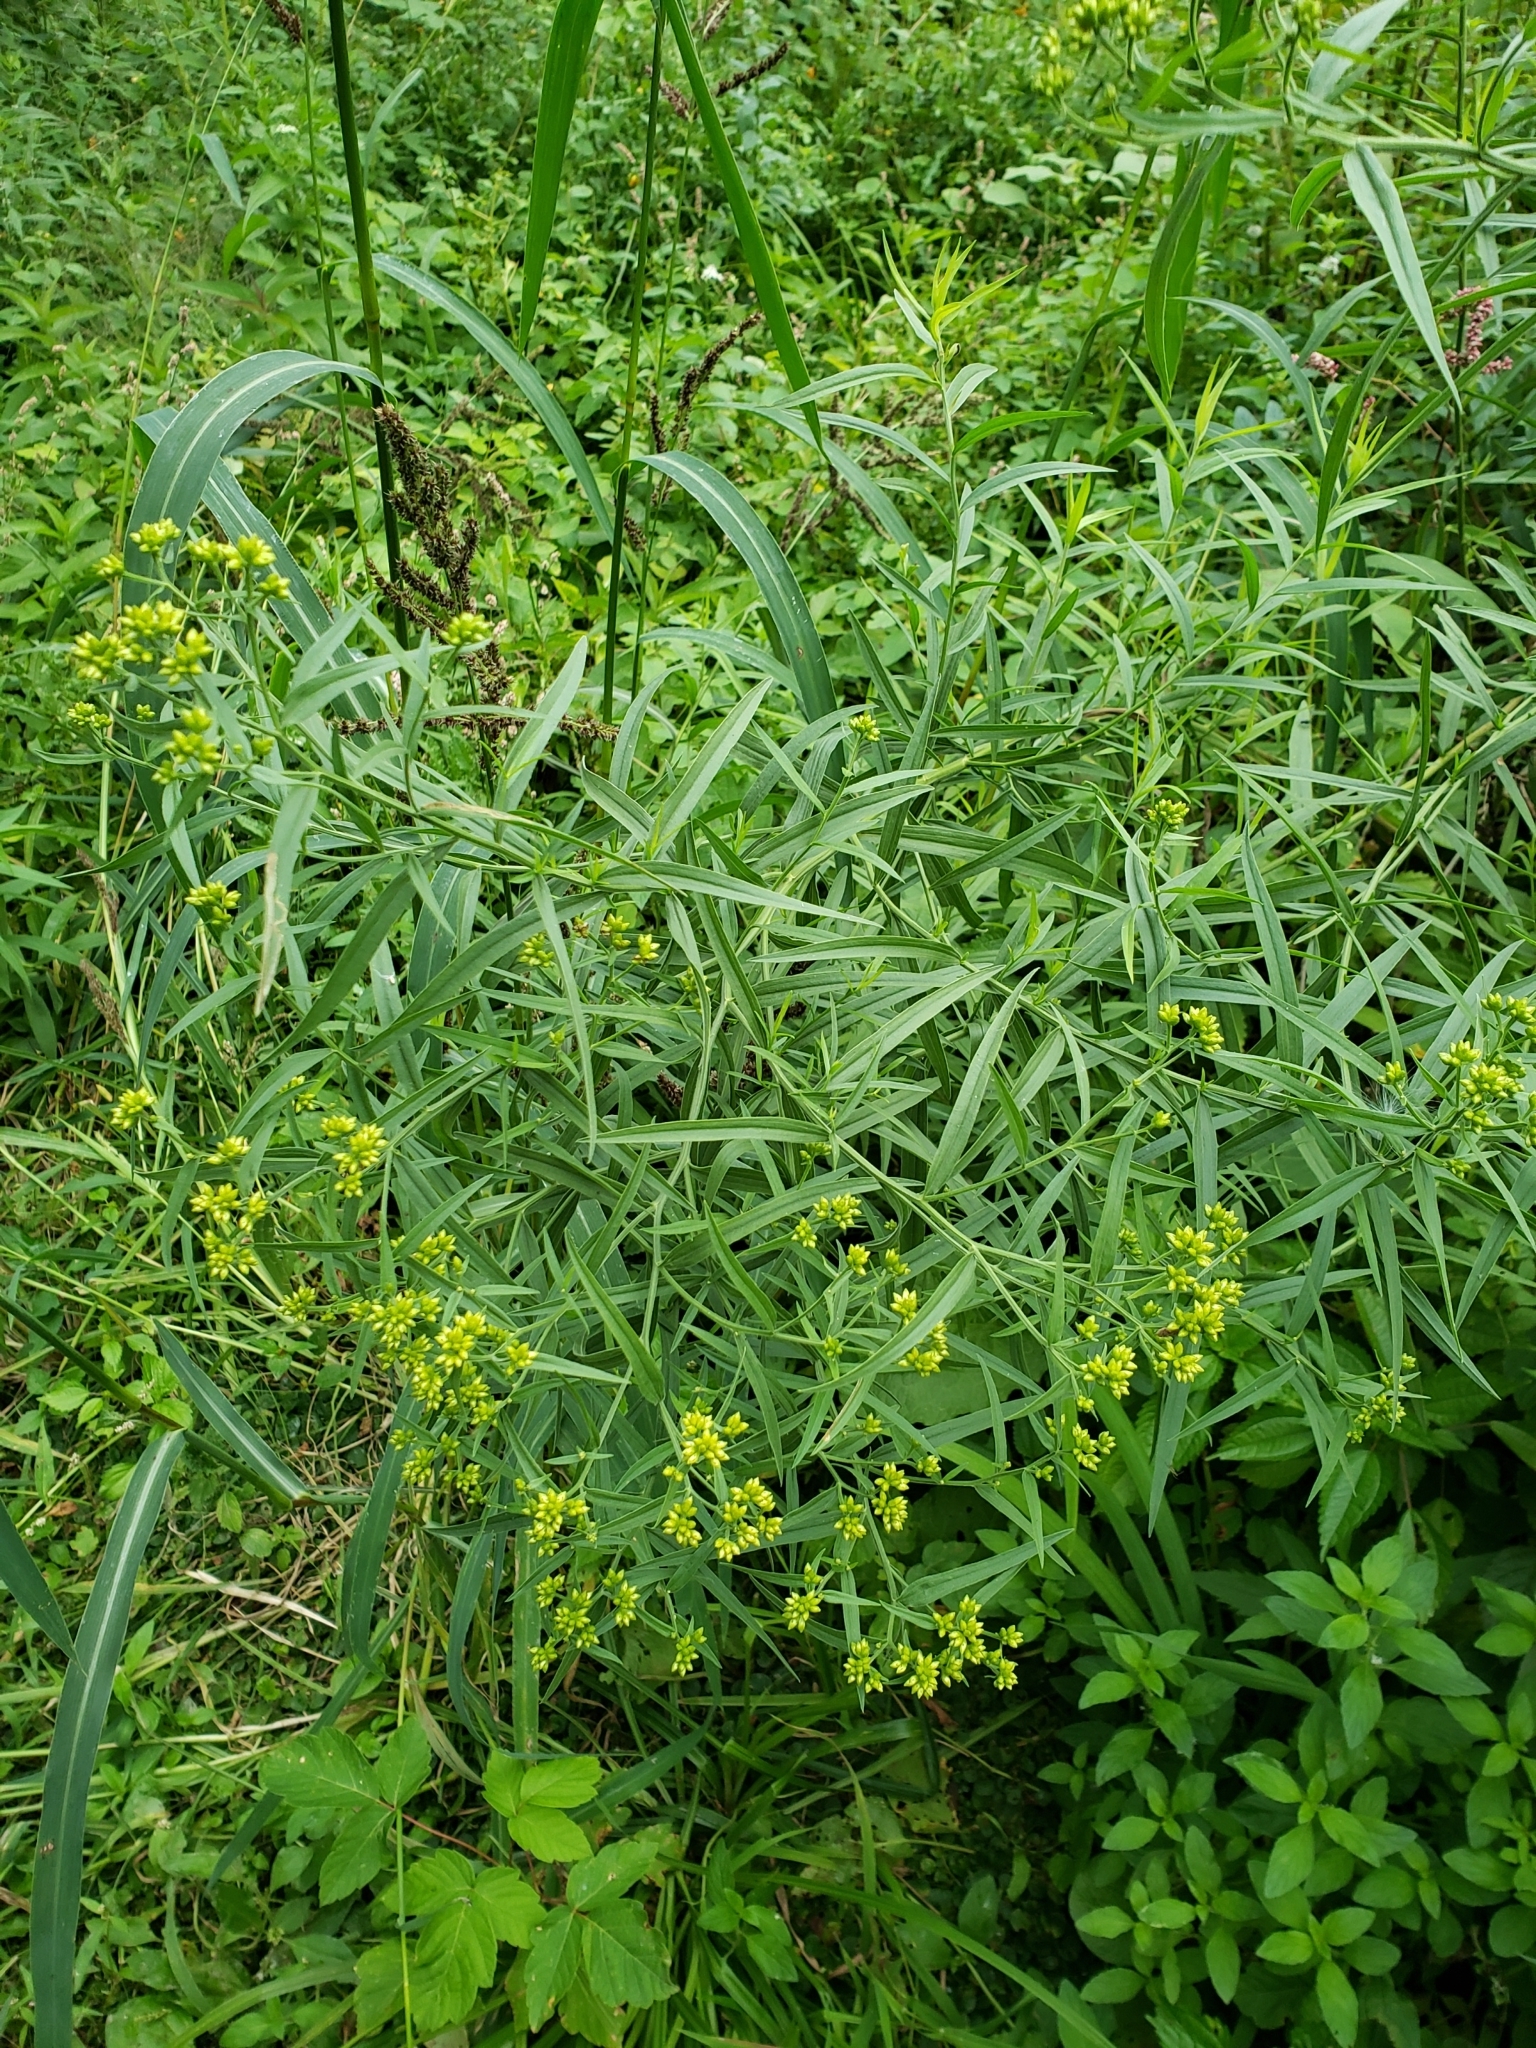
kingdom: Plantae
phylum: Tracheophyta
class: Magnoliopsida
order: Asterales
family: Asteraceae
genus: Euthamia
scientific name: Euthamia graminifolia
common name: Common goldentop
